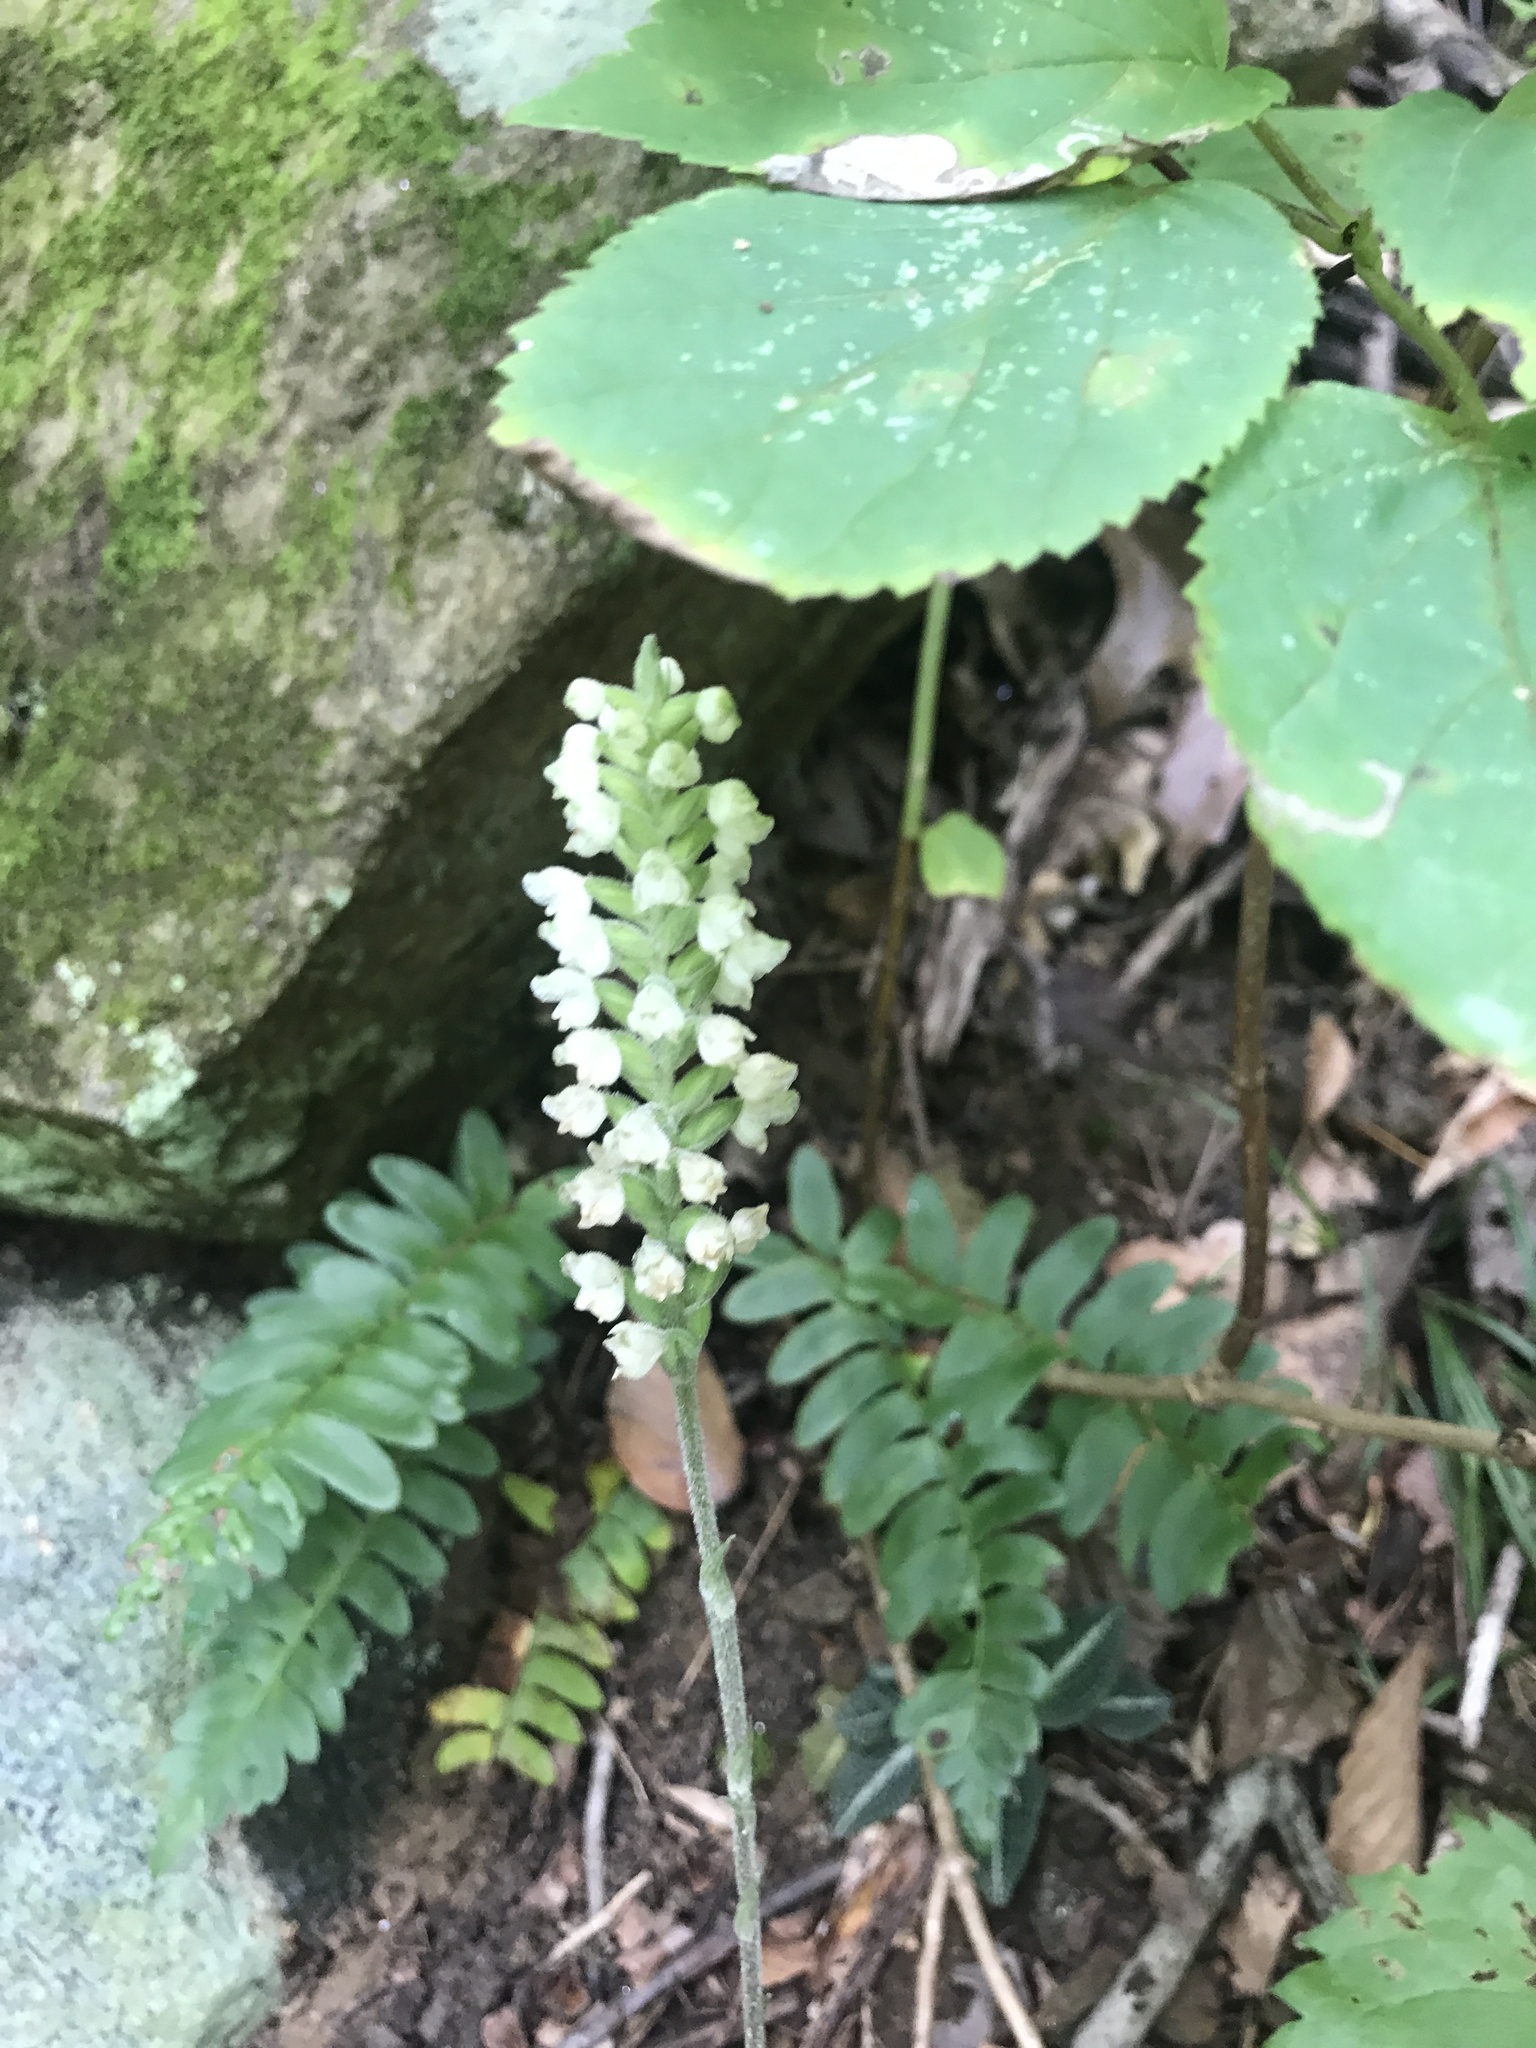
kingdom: Plantae
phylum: Tracheophyta
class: Liliopsida
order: Asparagales
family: Orchidaceae
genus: Goodyera
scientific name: Goodyera pubescens
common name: Downy rattlesnake-plantain
